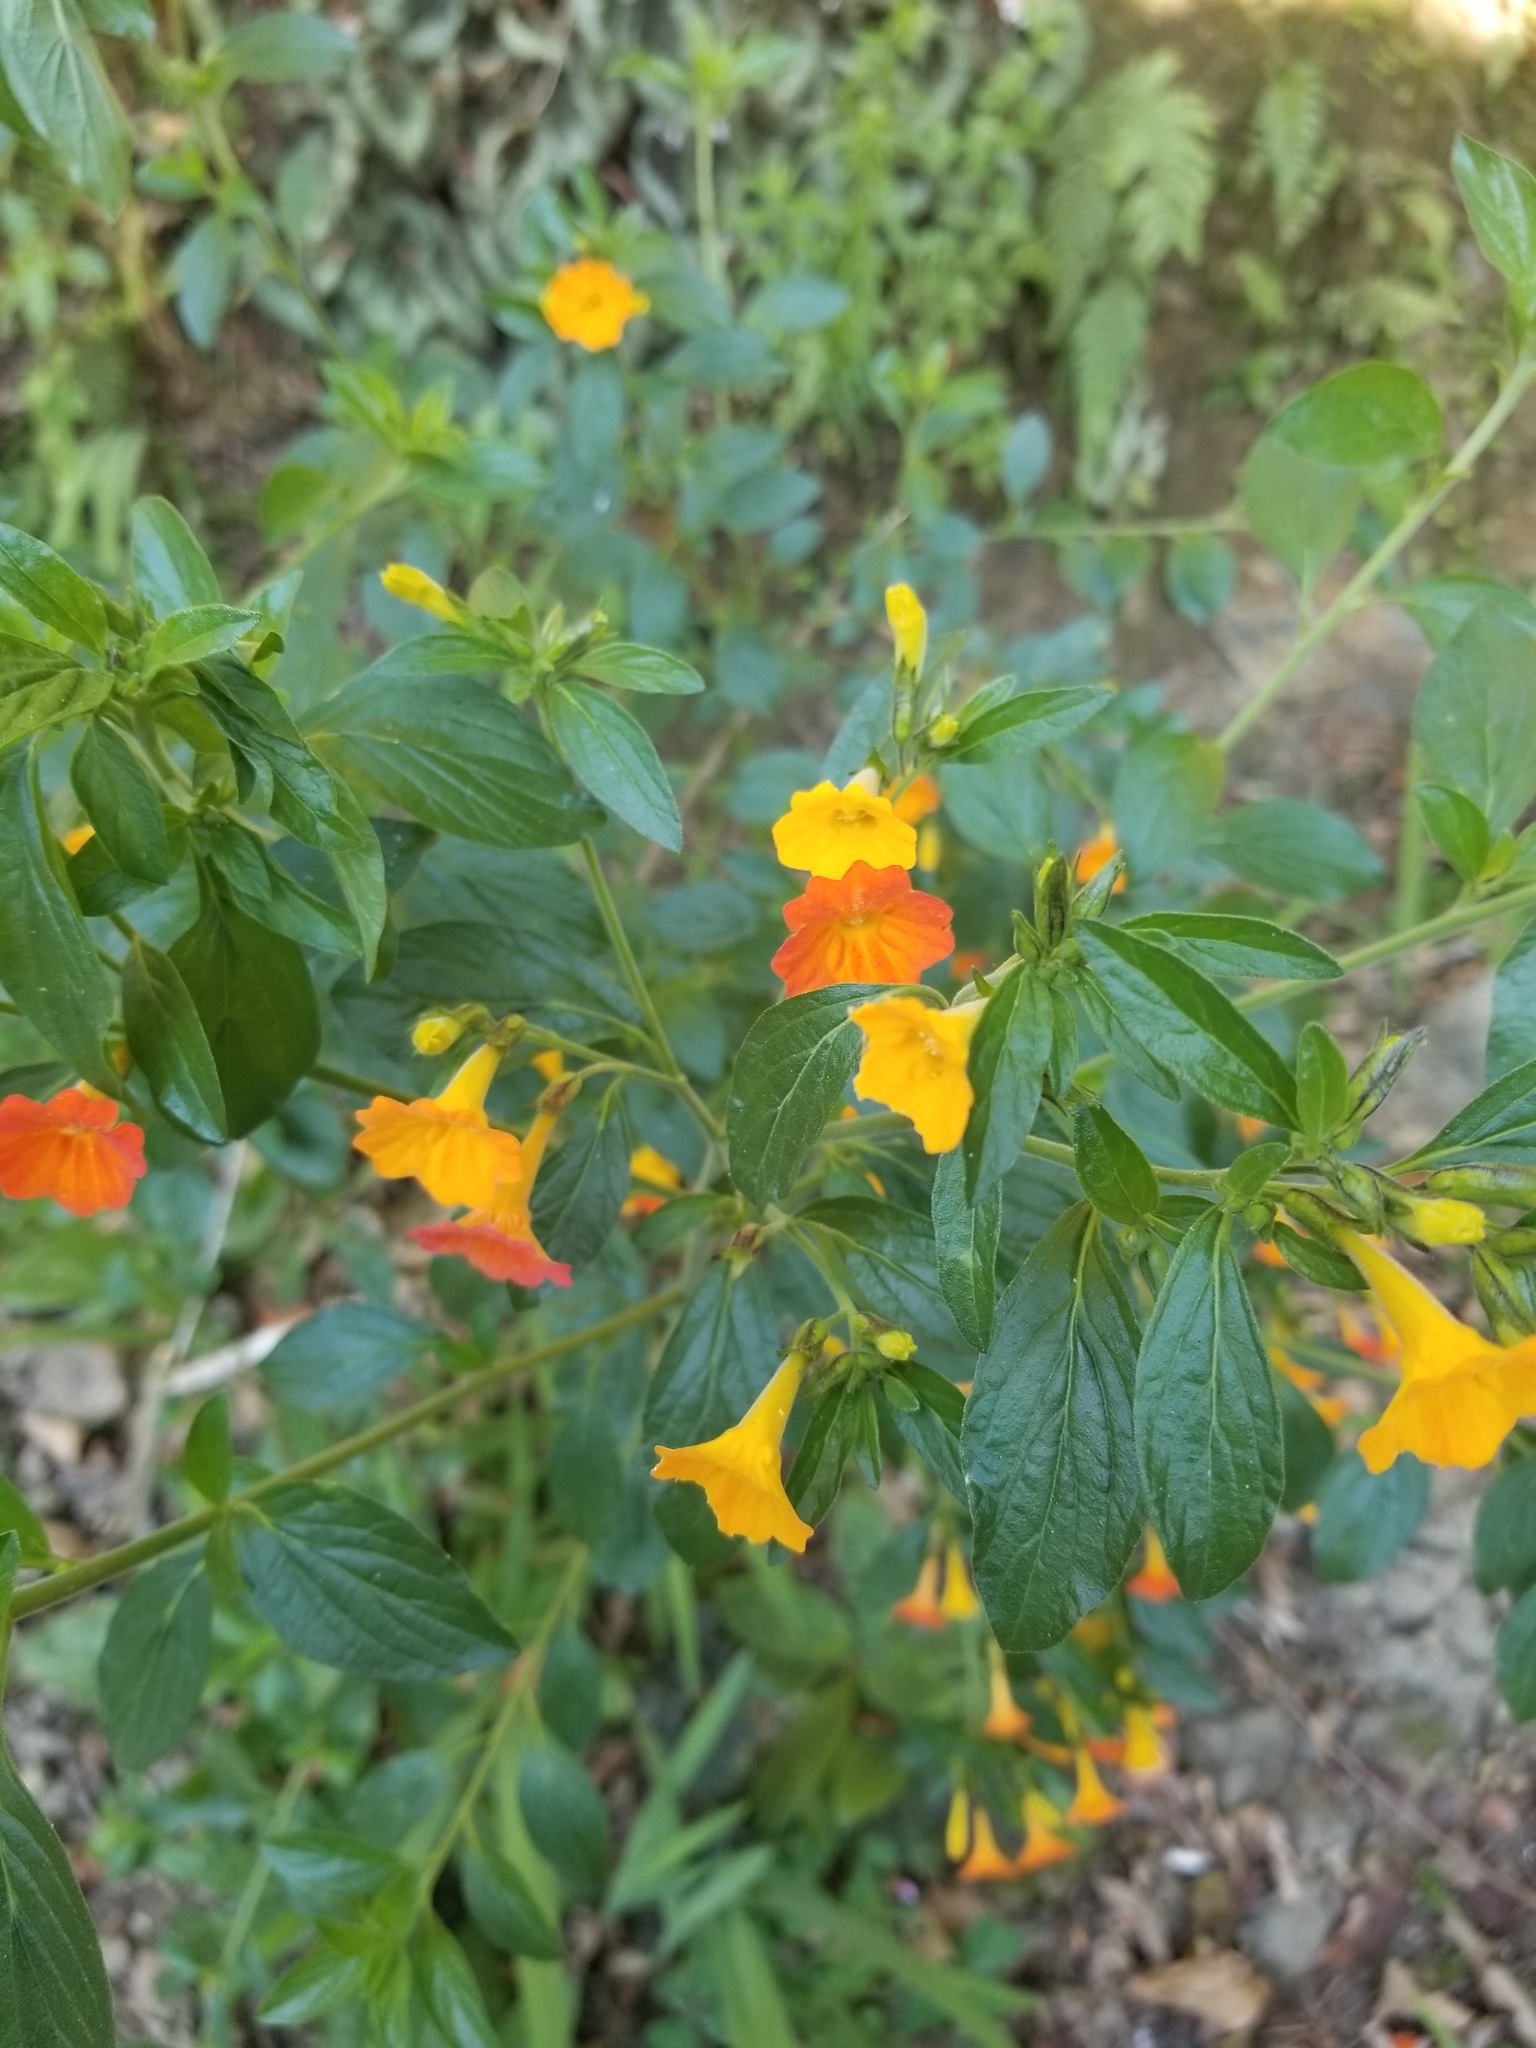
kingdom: Plantae
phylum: Tracheophyta
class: Magnoliopsida
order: Solanales
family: Solanaceae
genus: Streptosolen
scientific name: Streptosolen jamesonii
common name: Marmalade bush
